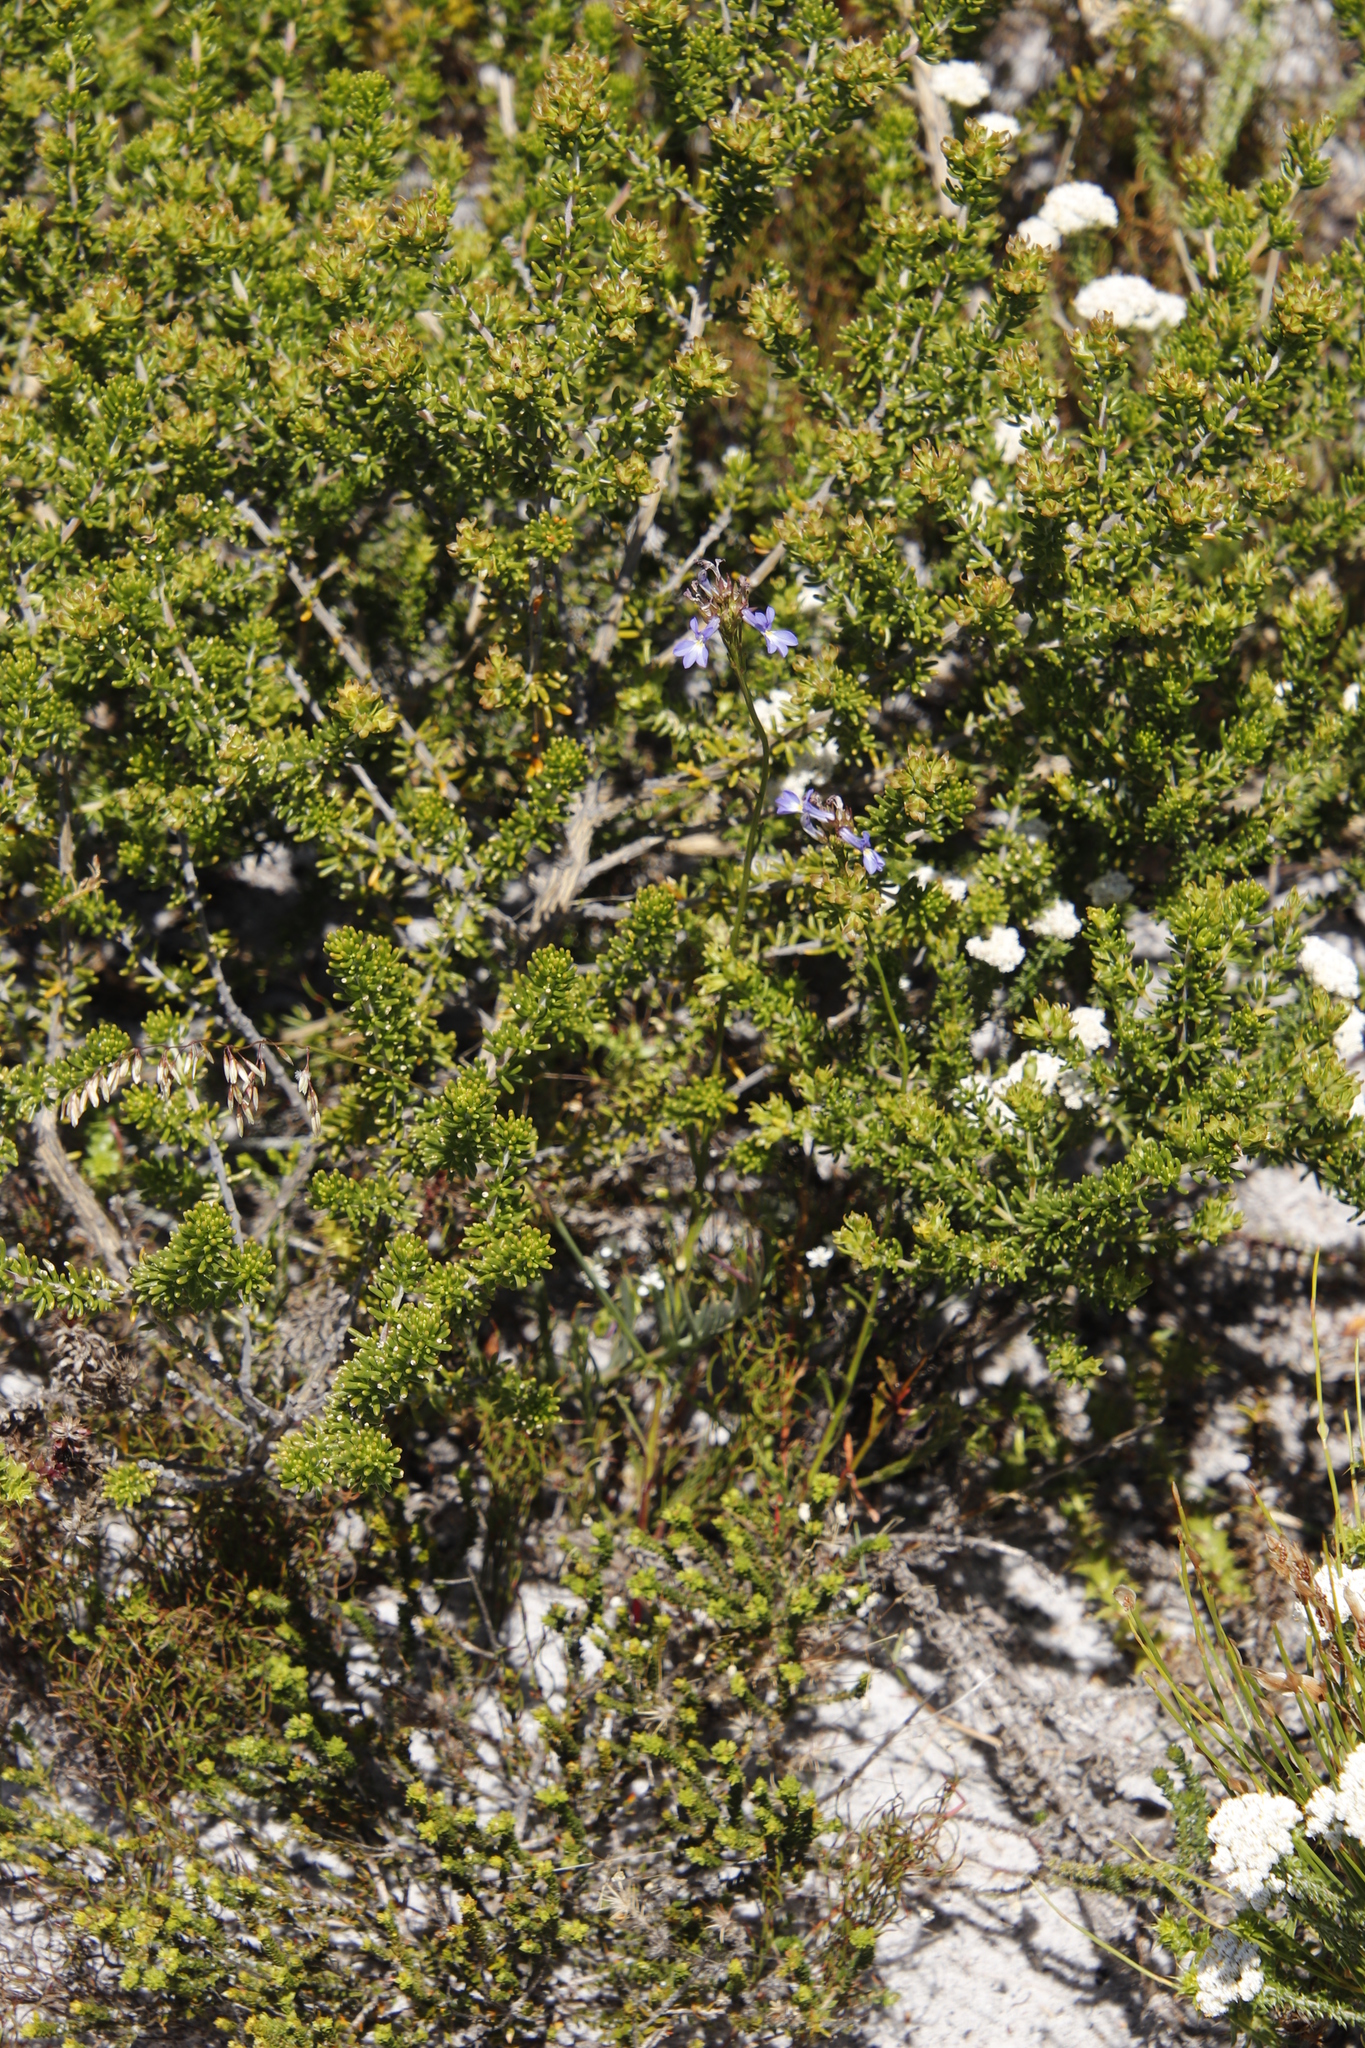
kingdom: Plantae
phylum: Tracheophyta
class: Magnoliopsida
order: Asterales
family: Campanulaceae
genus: Lobelia
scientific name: Lobelia comosa
